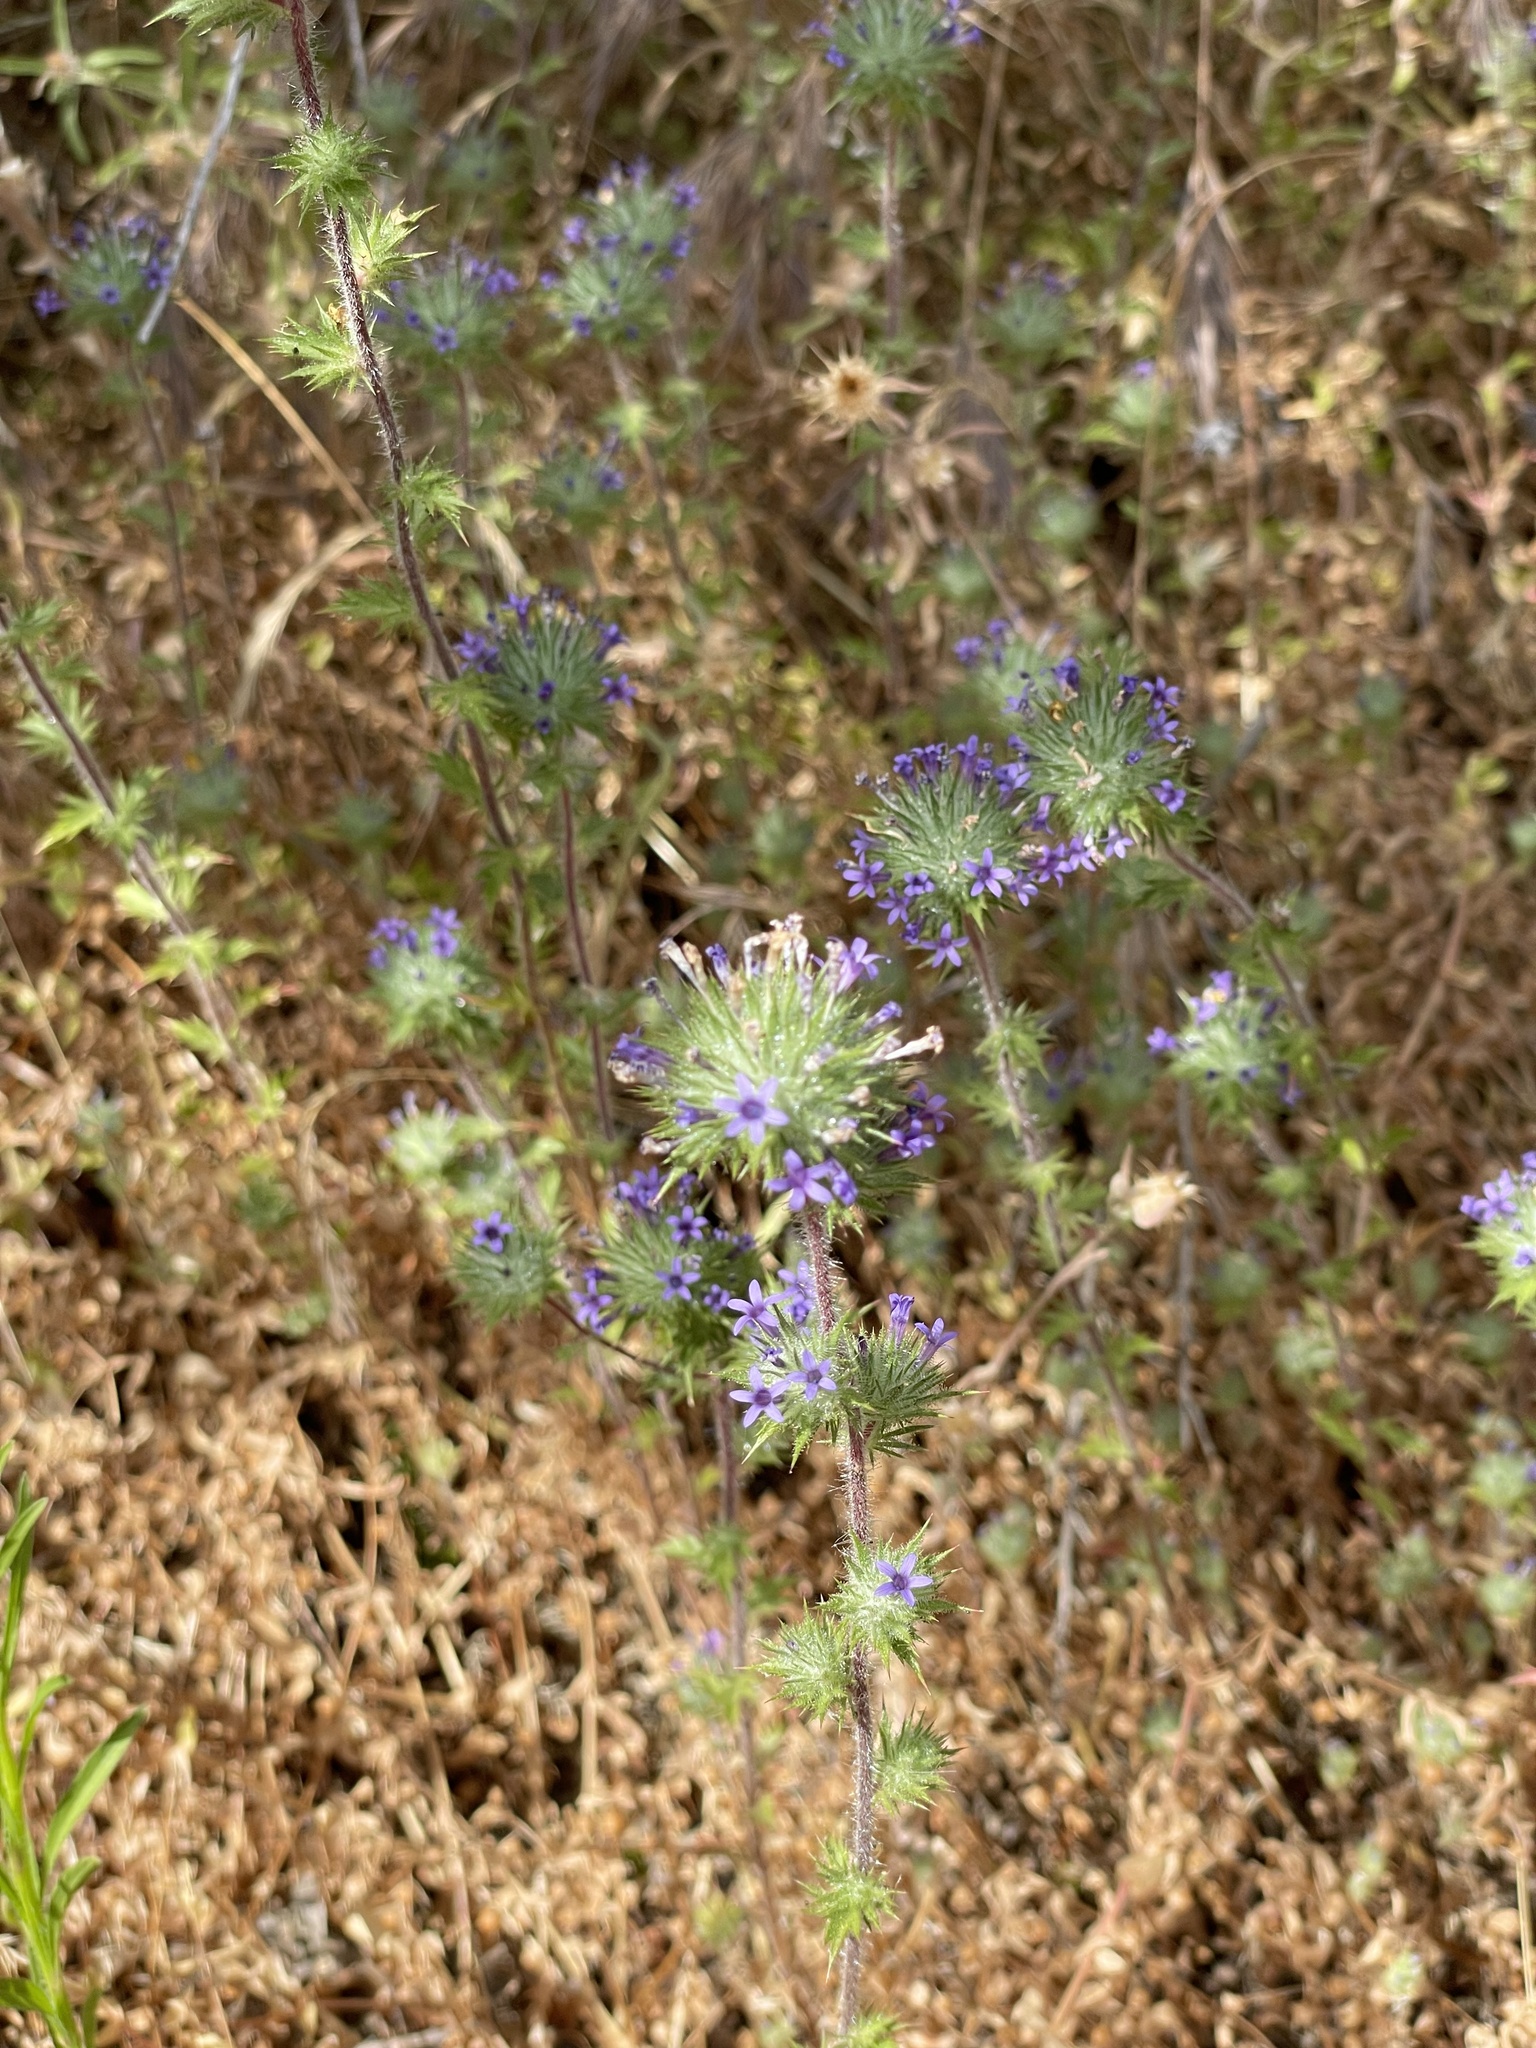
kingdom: Plantae
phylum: Tracheophyta
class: Magnoliopsida
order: Ericales
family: Polemoniaceae
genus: Navarretia
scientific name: Navarretia squarrosa
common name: Skunkweed
